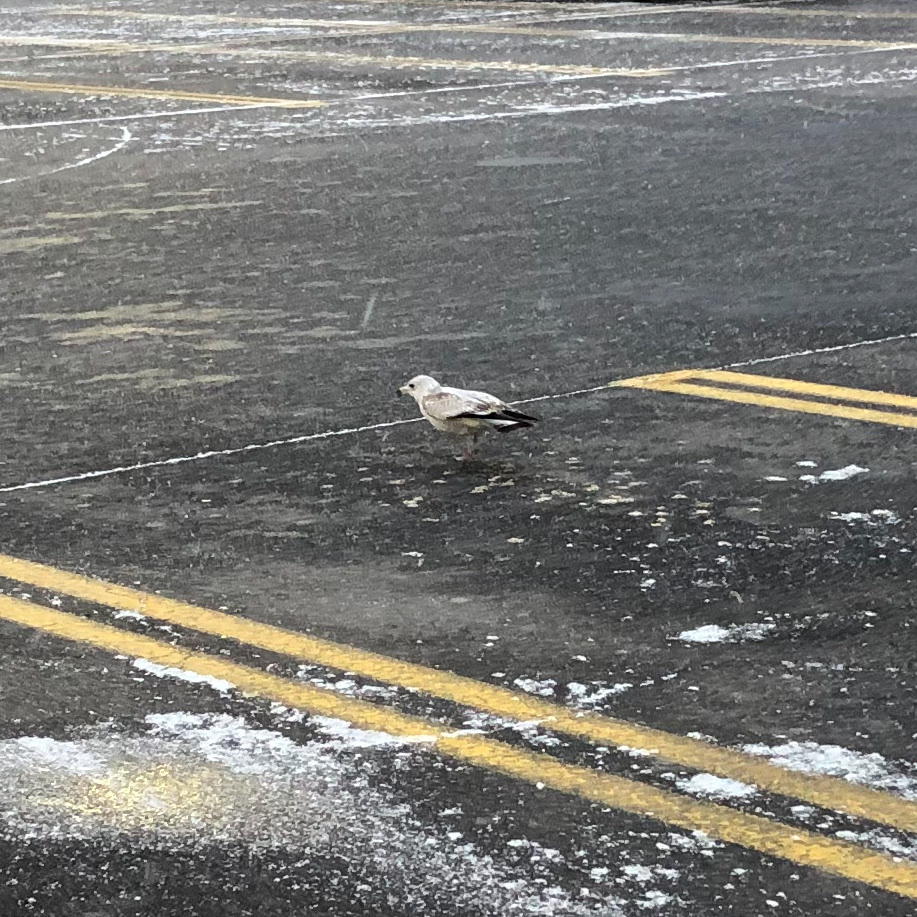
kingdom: Animalia
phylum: Chordata
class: Aves
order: Charadriiformes
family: Laridae
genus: Larus
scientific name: Larus delawarensis
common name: Ring-billed gull
